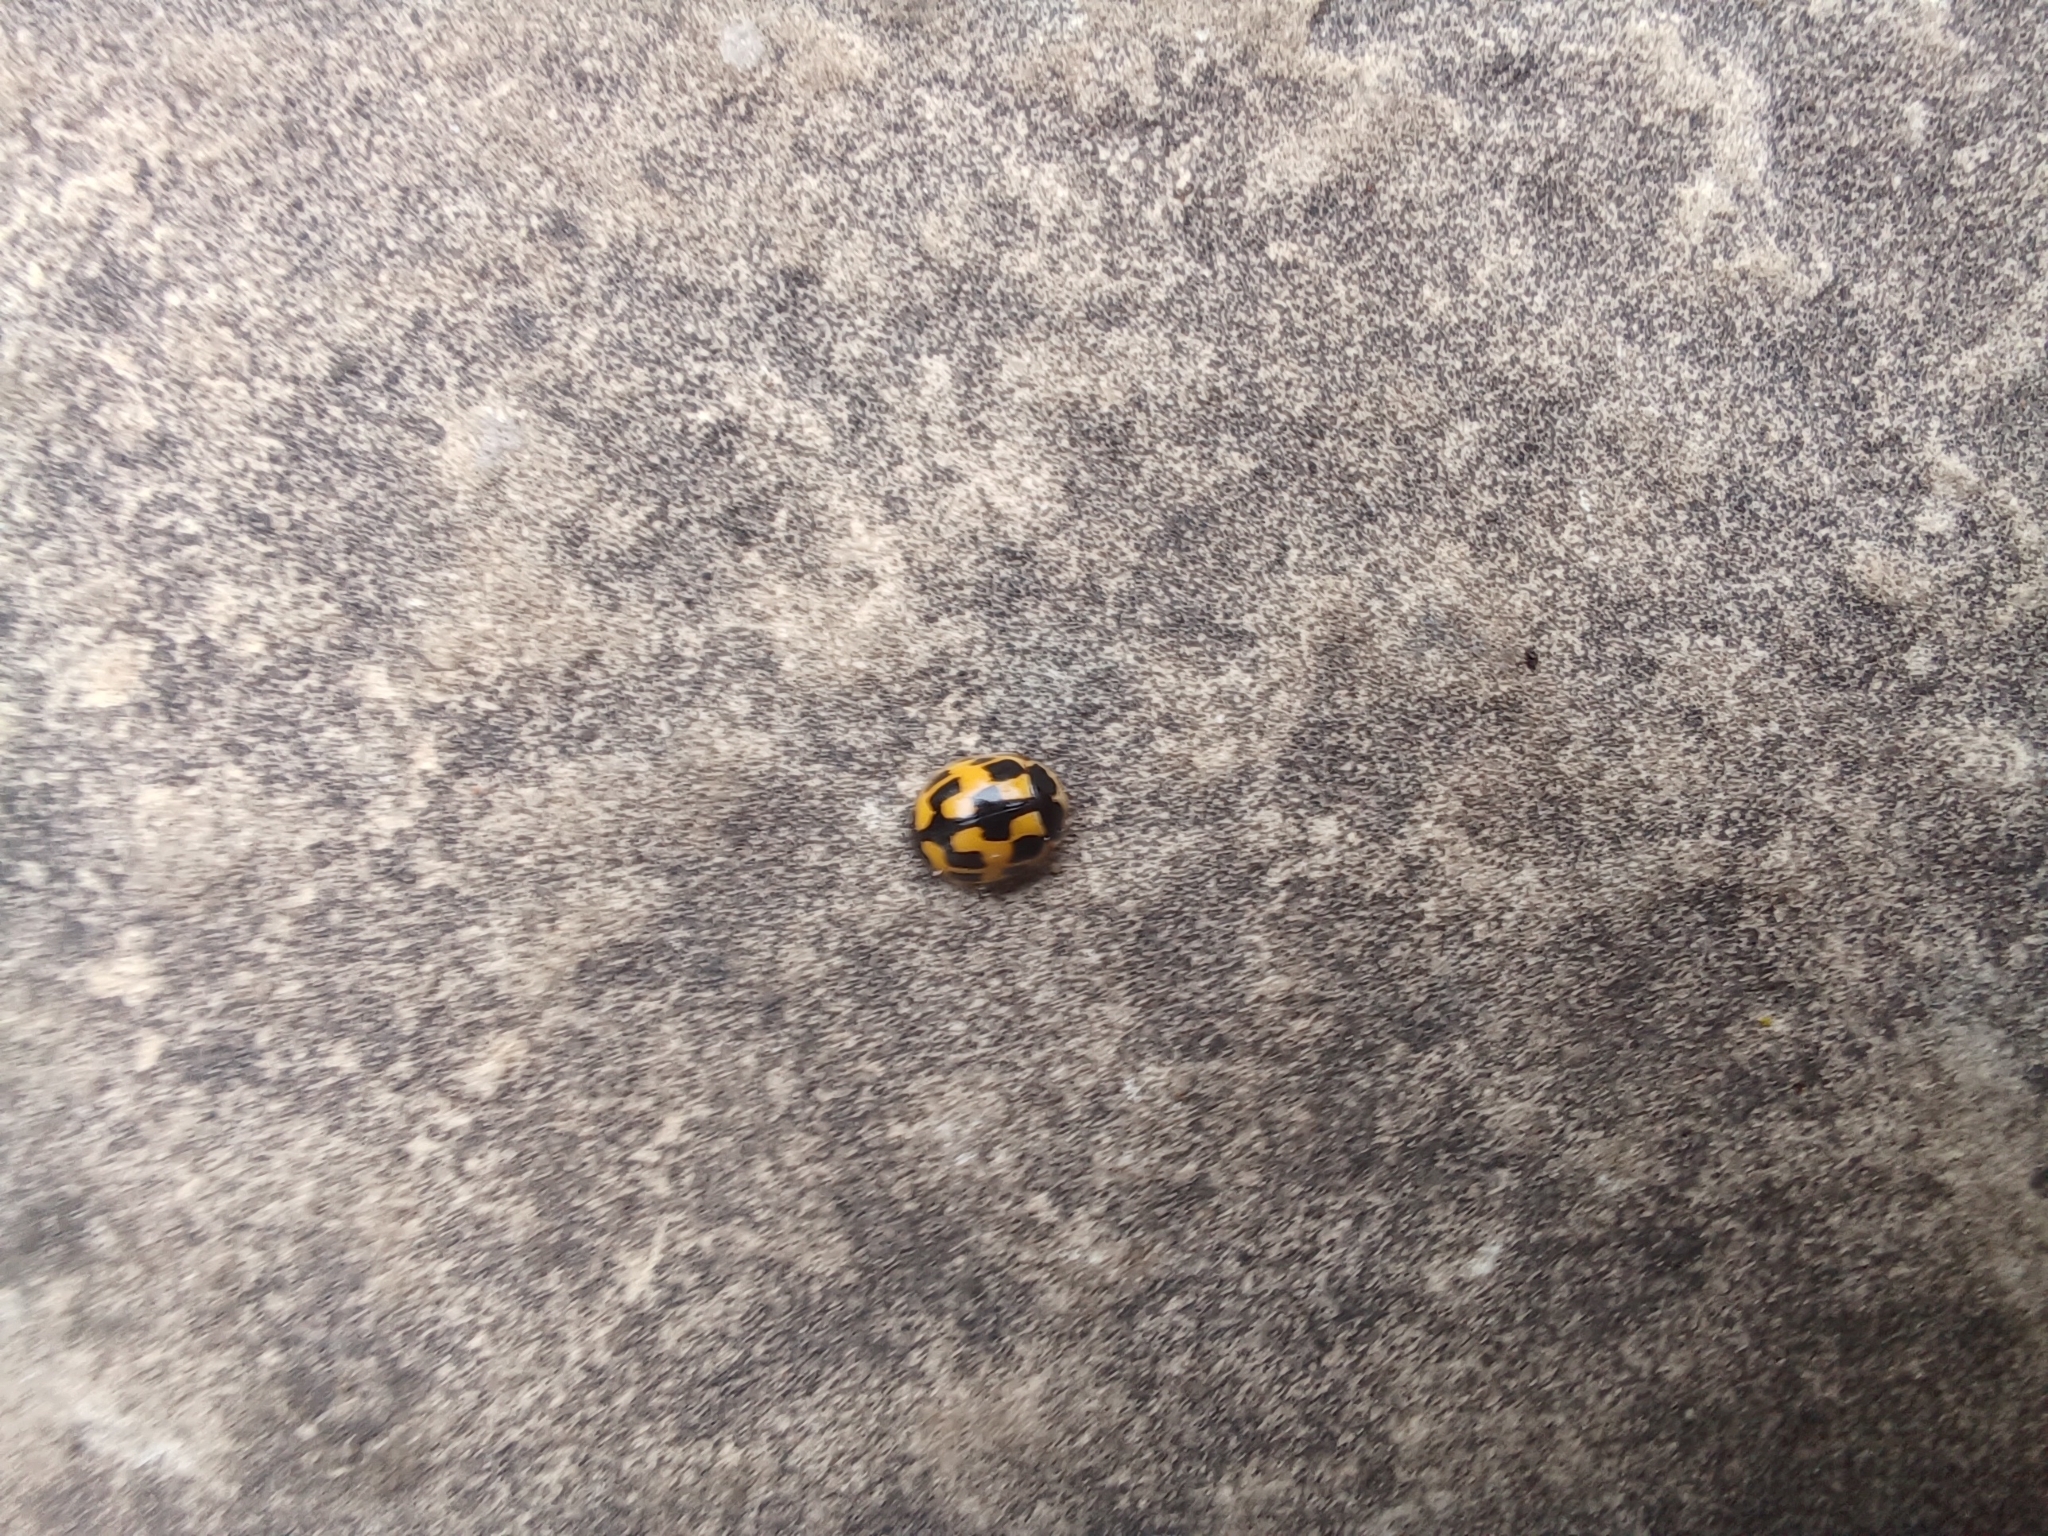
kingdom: Animalia
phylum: Arthropoda
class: Insecta
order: Coleoptera
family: Coccinellidae
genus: Propylaea
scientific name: Propylaea quatuordecimpunctata
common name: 14-spotted ladybird beetle
